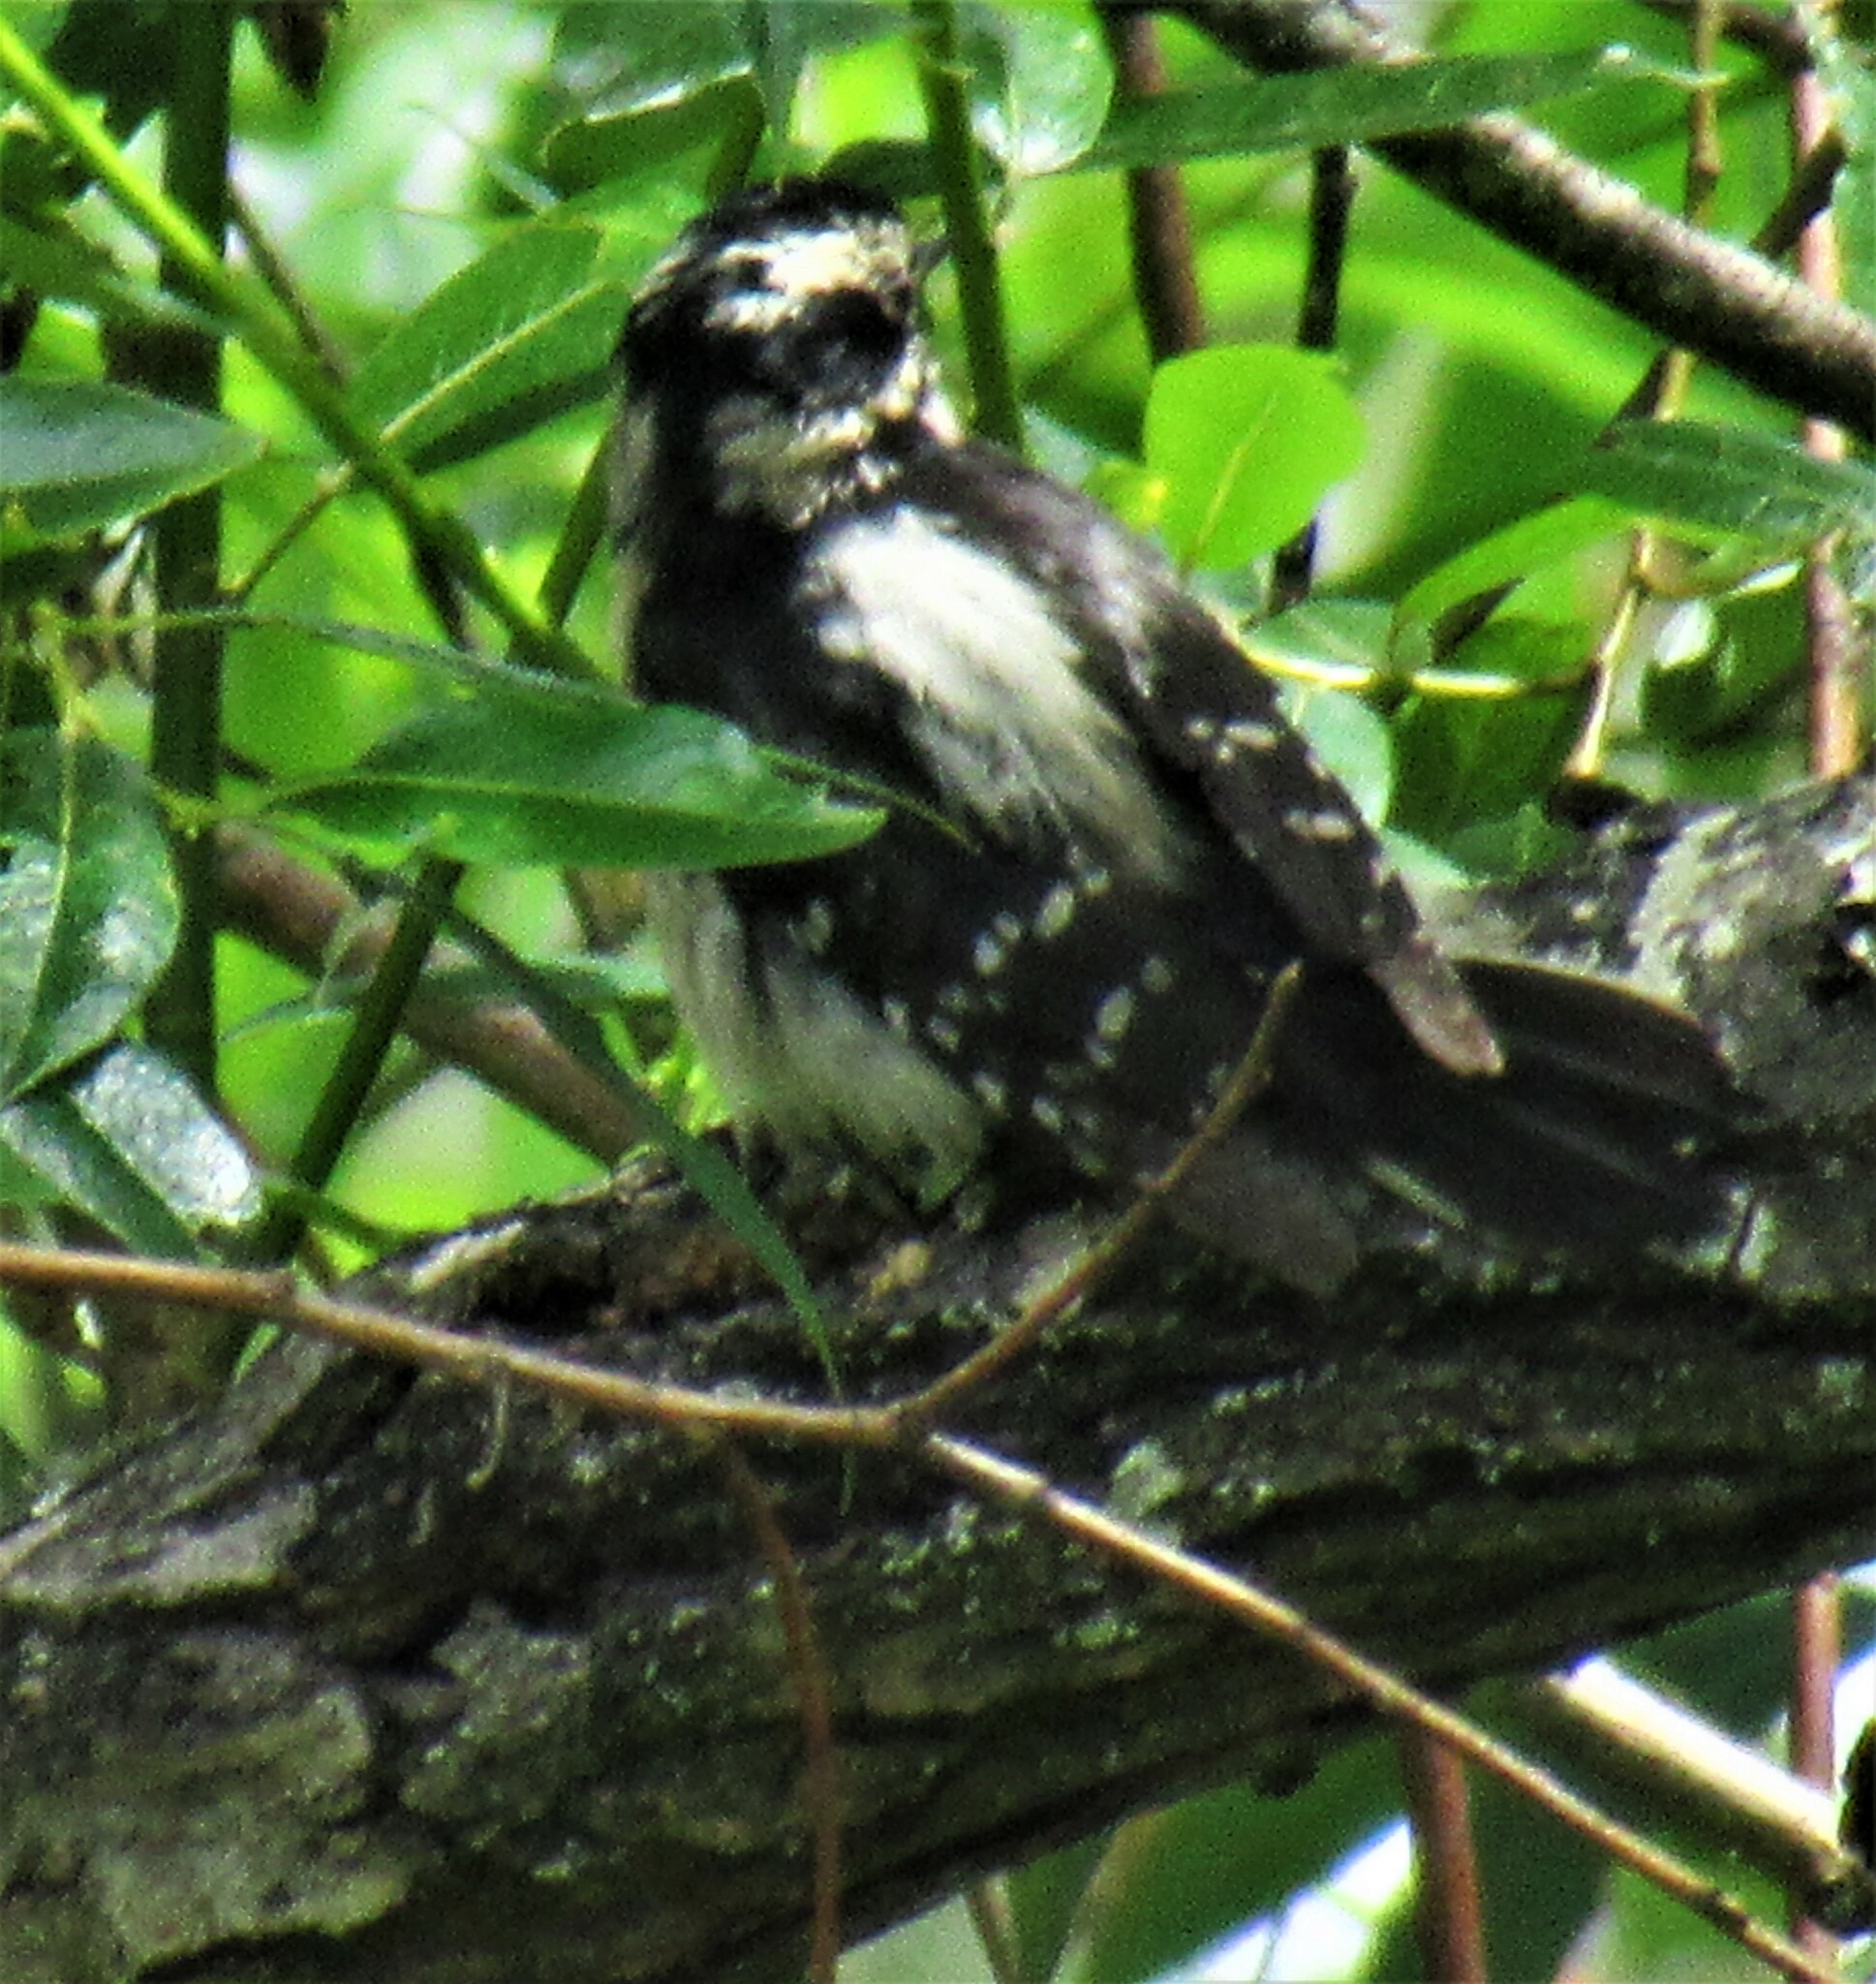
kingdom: Animalia
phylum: Chordata
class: Aves
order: Piciformes
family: Picidae
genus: Dryobates
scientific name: Dryobates pubescens
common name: Downy woodpecker
